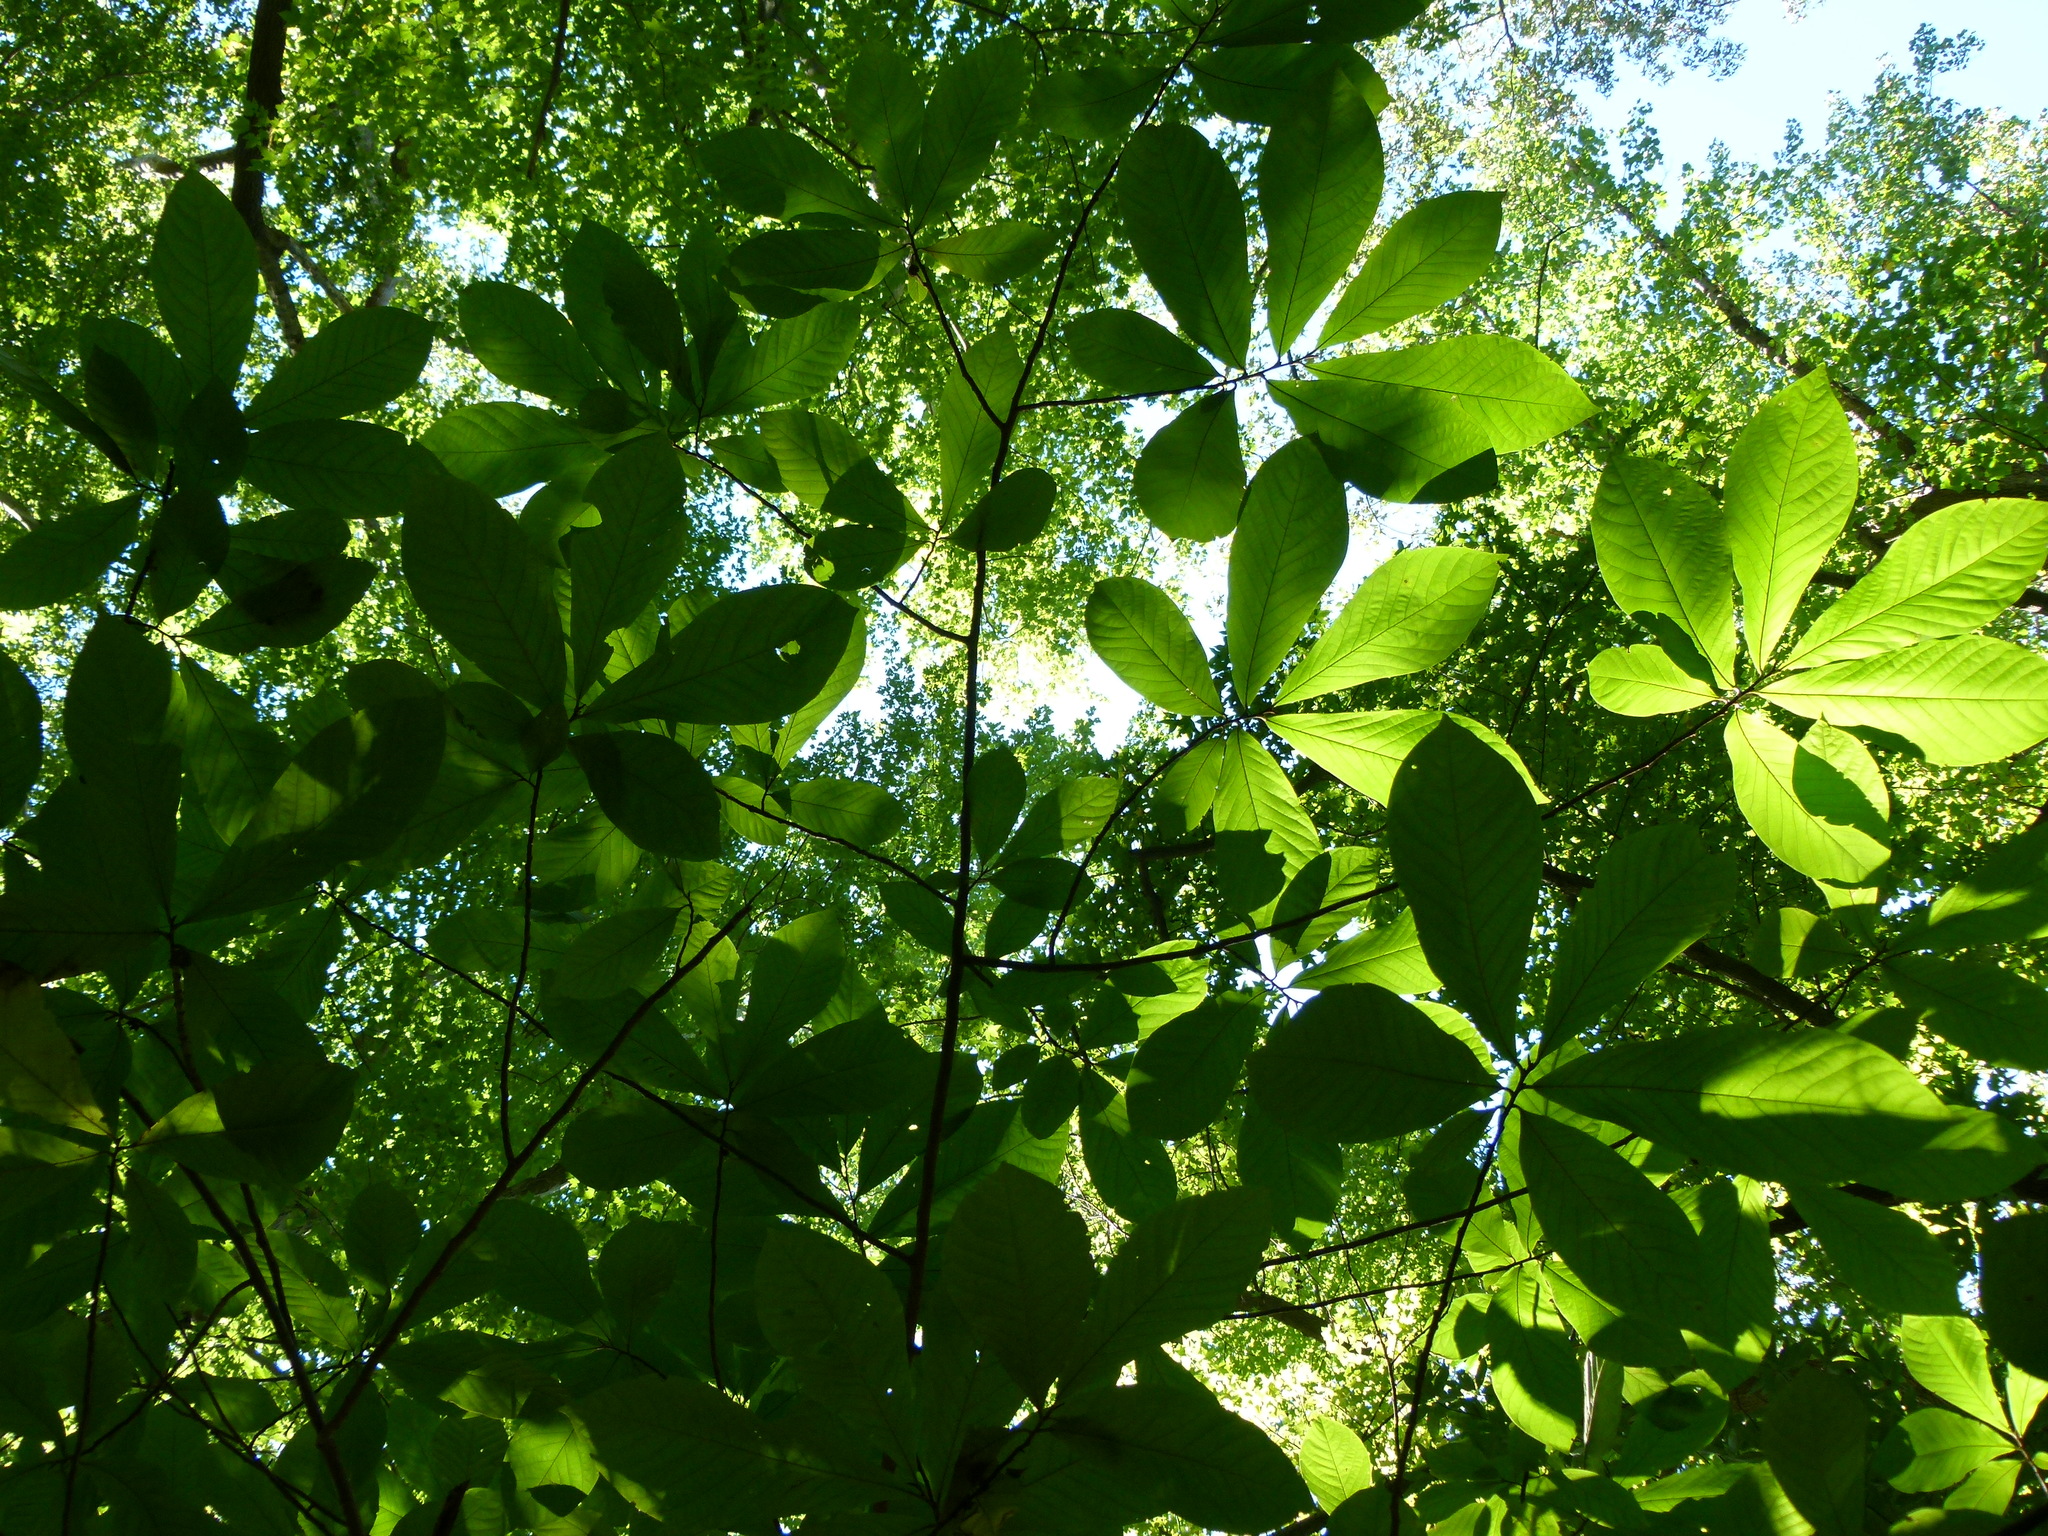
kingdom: Plantae
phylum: Tracheophyta
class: Magnoliopsida
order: Magnoliales
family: Annonaceae
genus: Asimina
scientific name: Asimina triloba
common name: Dog-banana
